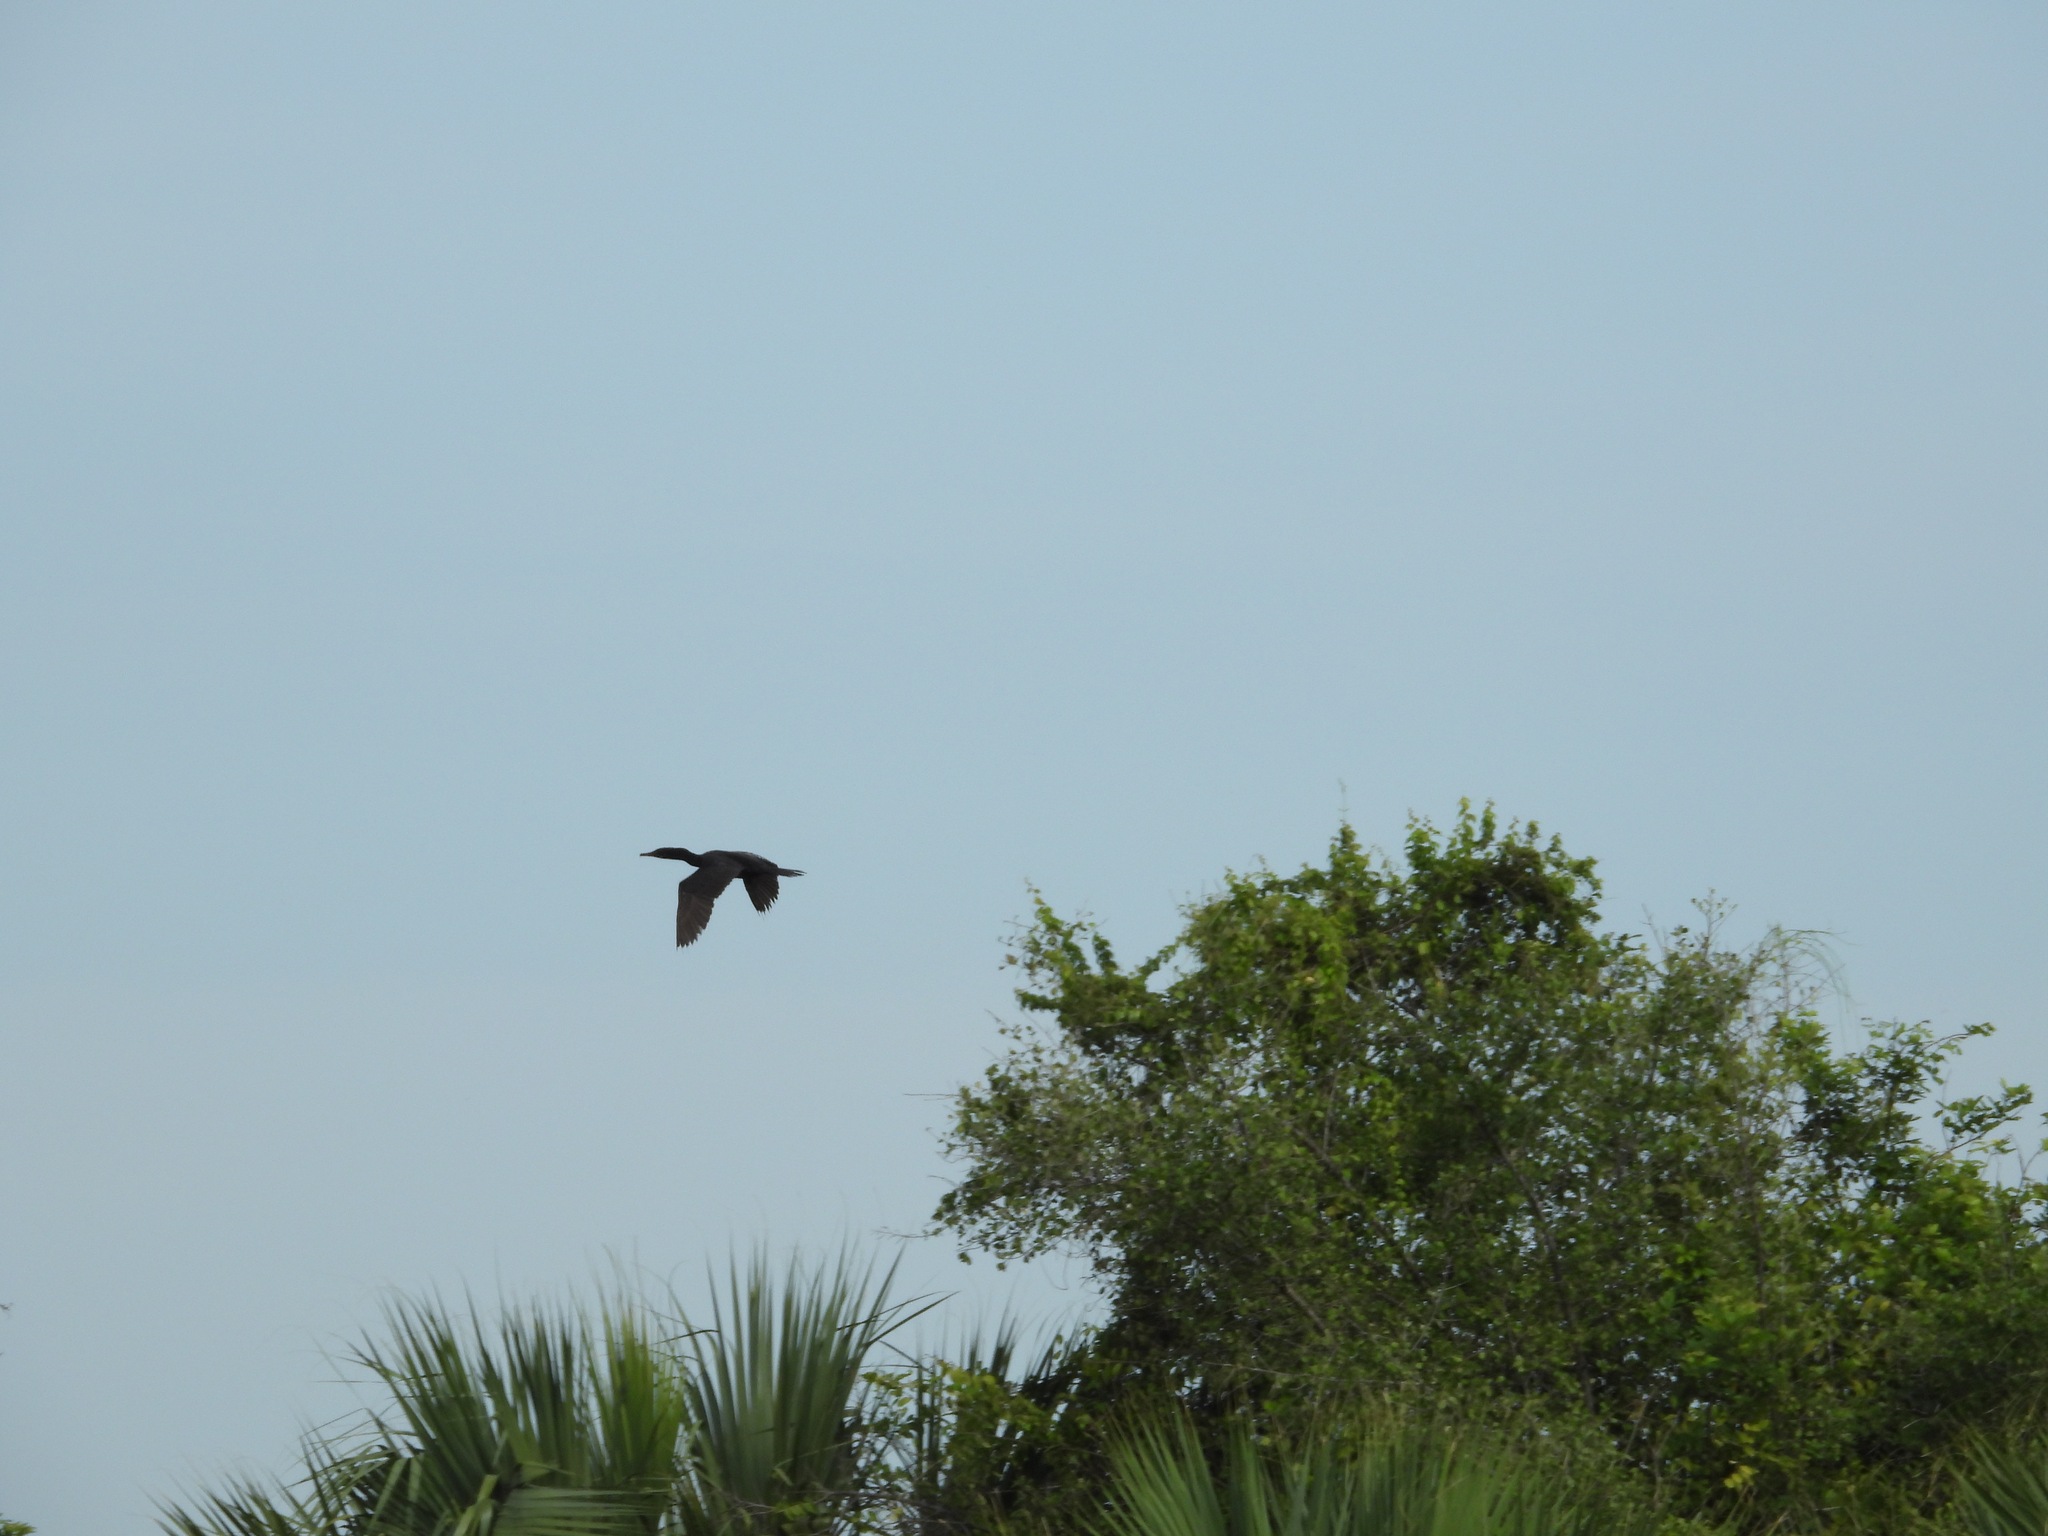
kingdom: Animalia
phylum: Chordata
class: Aves
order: Suliformes
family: Phalacrocoracidae
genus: Phalacrocorax
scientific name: Phalacrocorax brasilianus
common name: Neotropic cormorant
